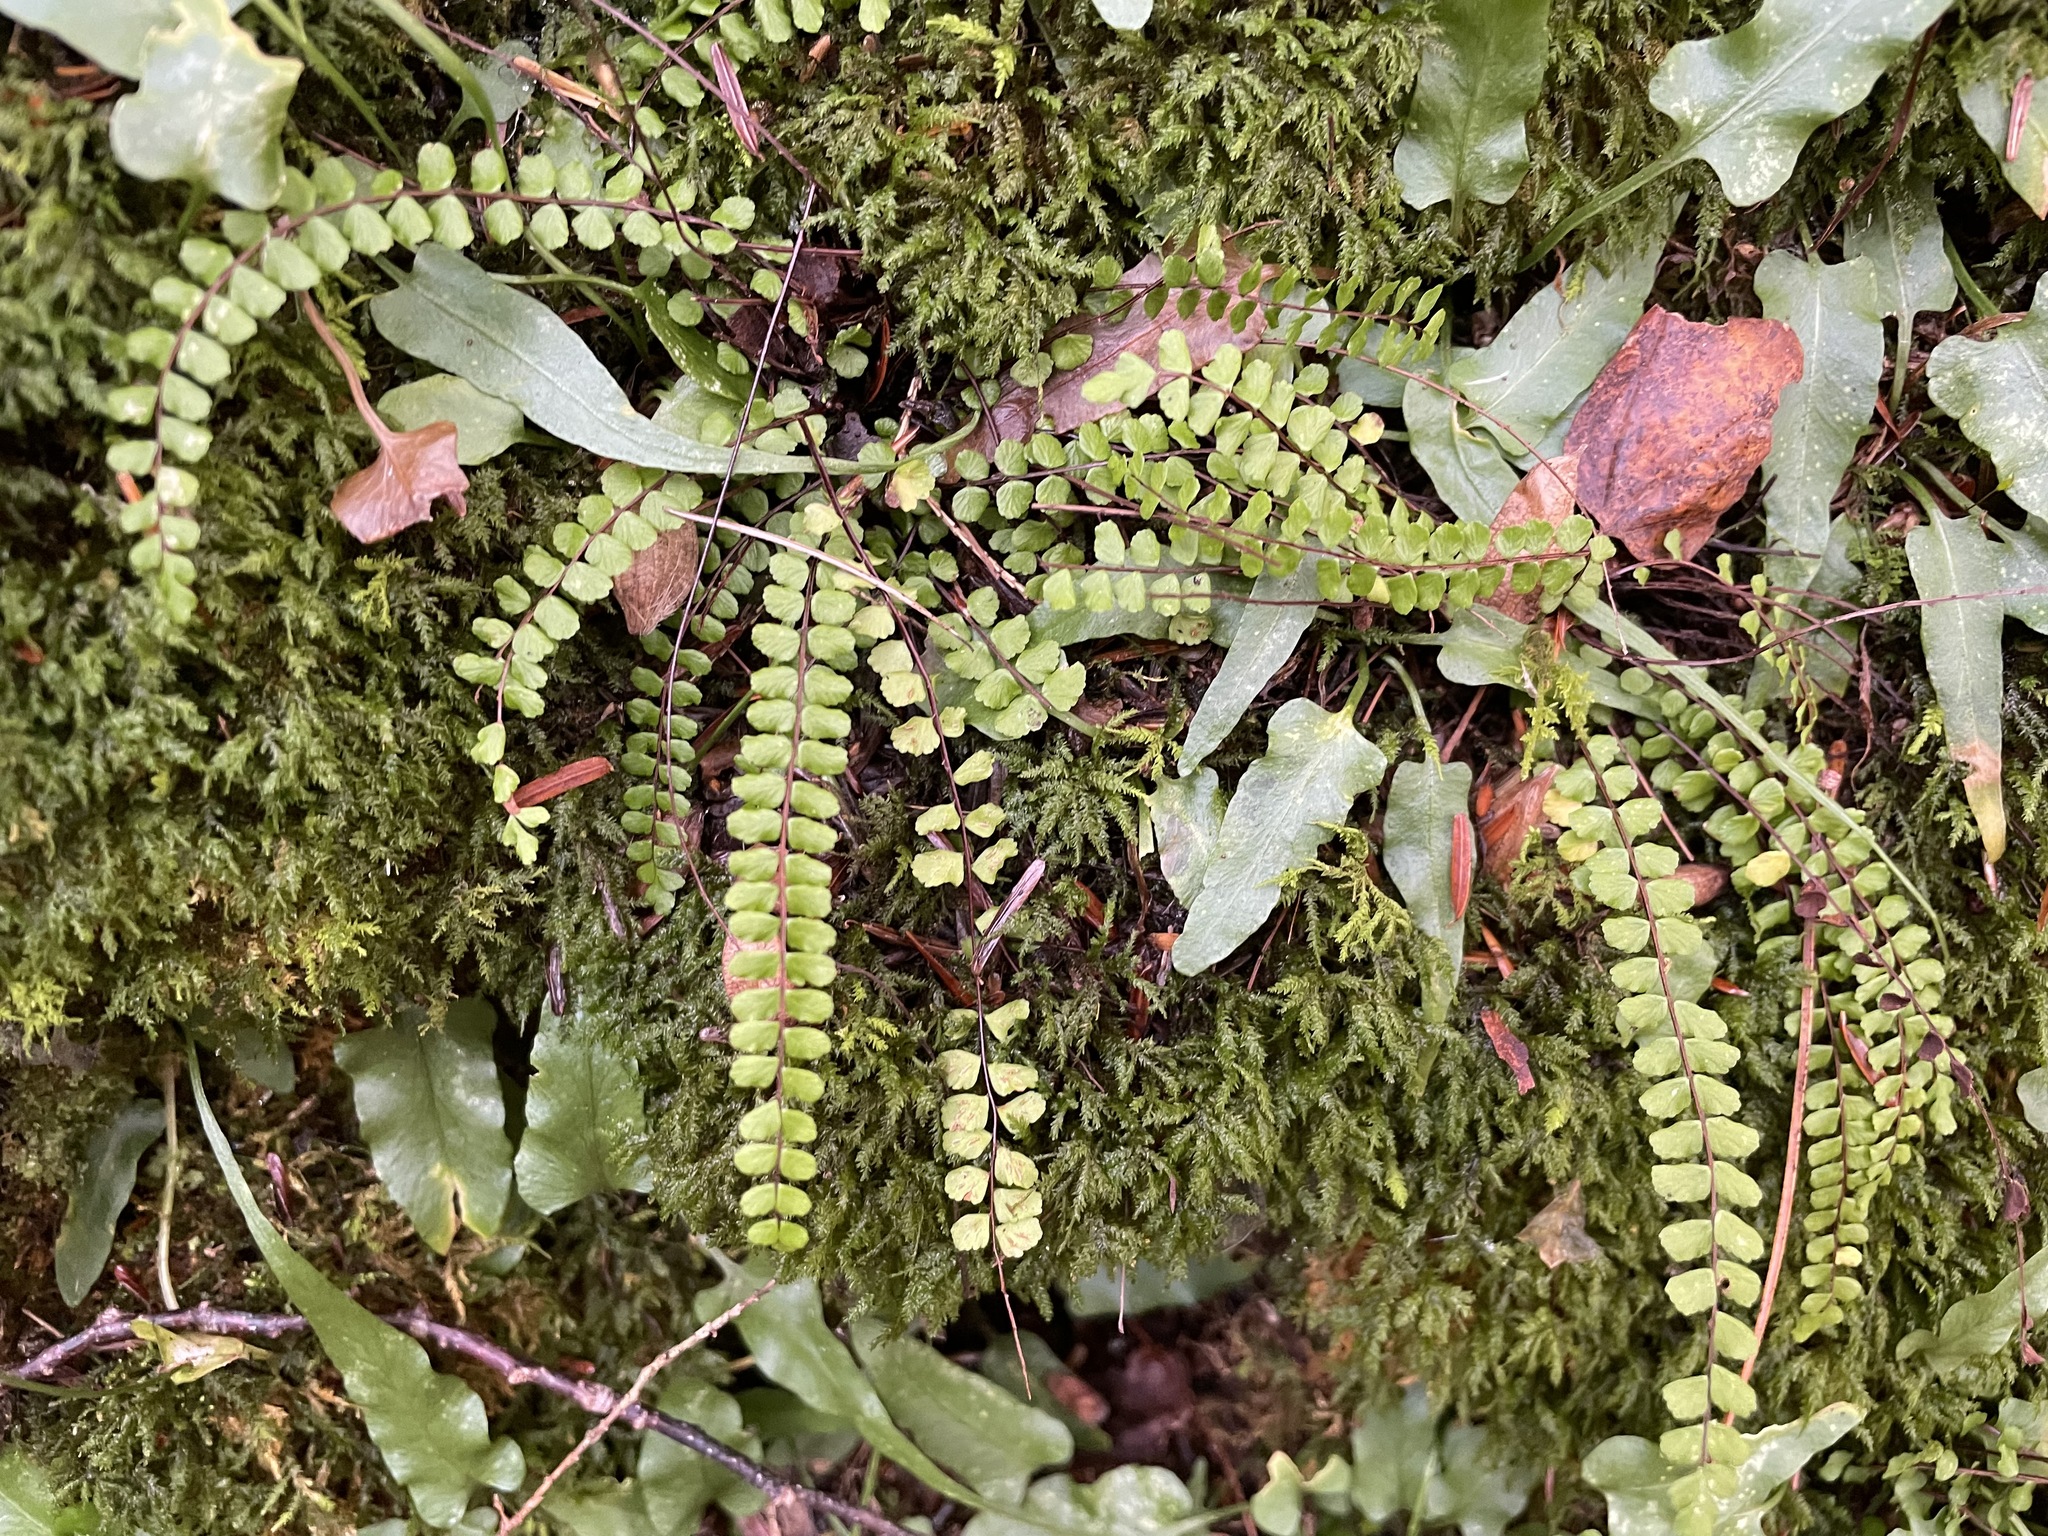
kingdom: Plantae
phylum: Tracheophyta
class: Polypodiopsida
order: Polypodiales
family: Aspleniaceae
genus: Asplenium
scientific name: Asplenium rhizophyllum
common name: Walking fern
